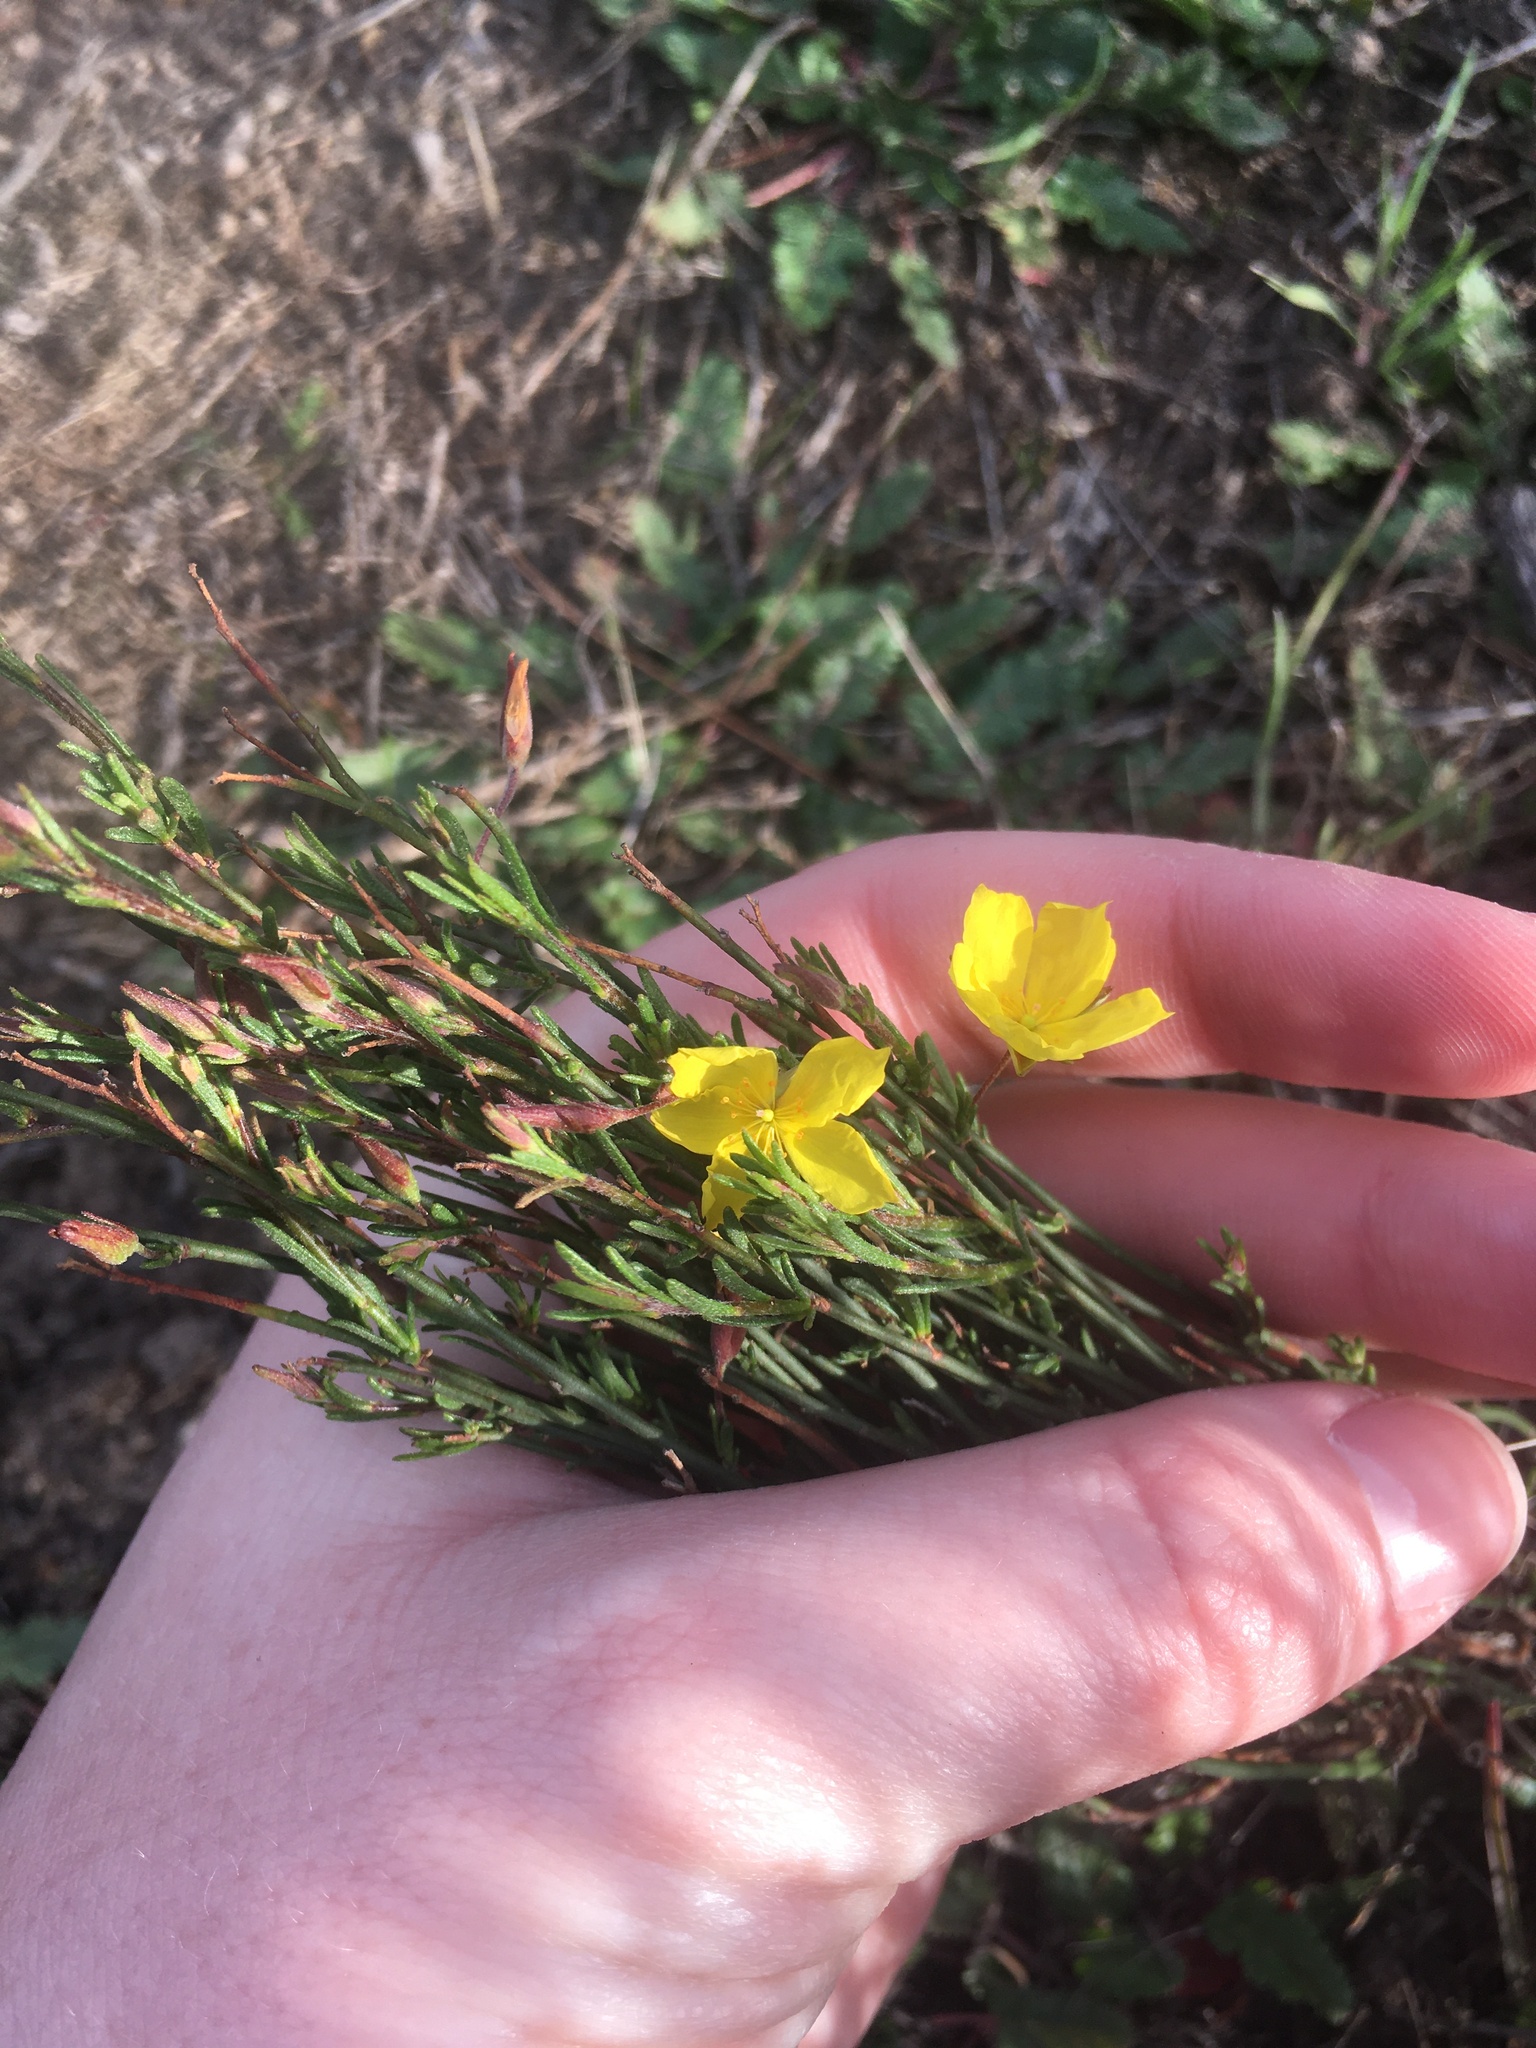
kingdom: Plantae
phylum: Tracheophyta
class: Magnoliopsida
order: Malvales
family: Cistaceae
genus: Crocanthemum
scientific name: Crocanthemum scoparium
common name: Broom-rose
